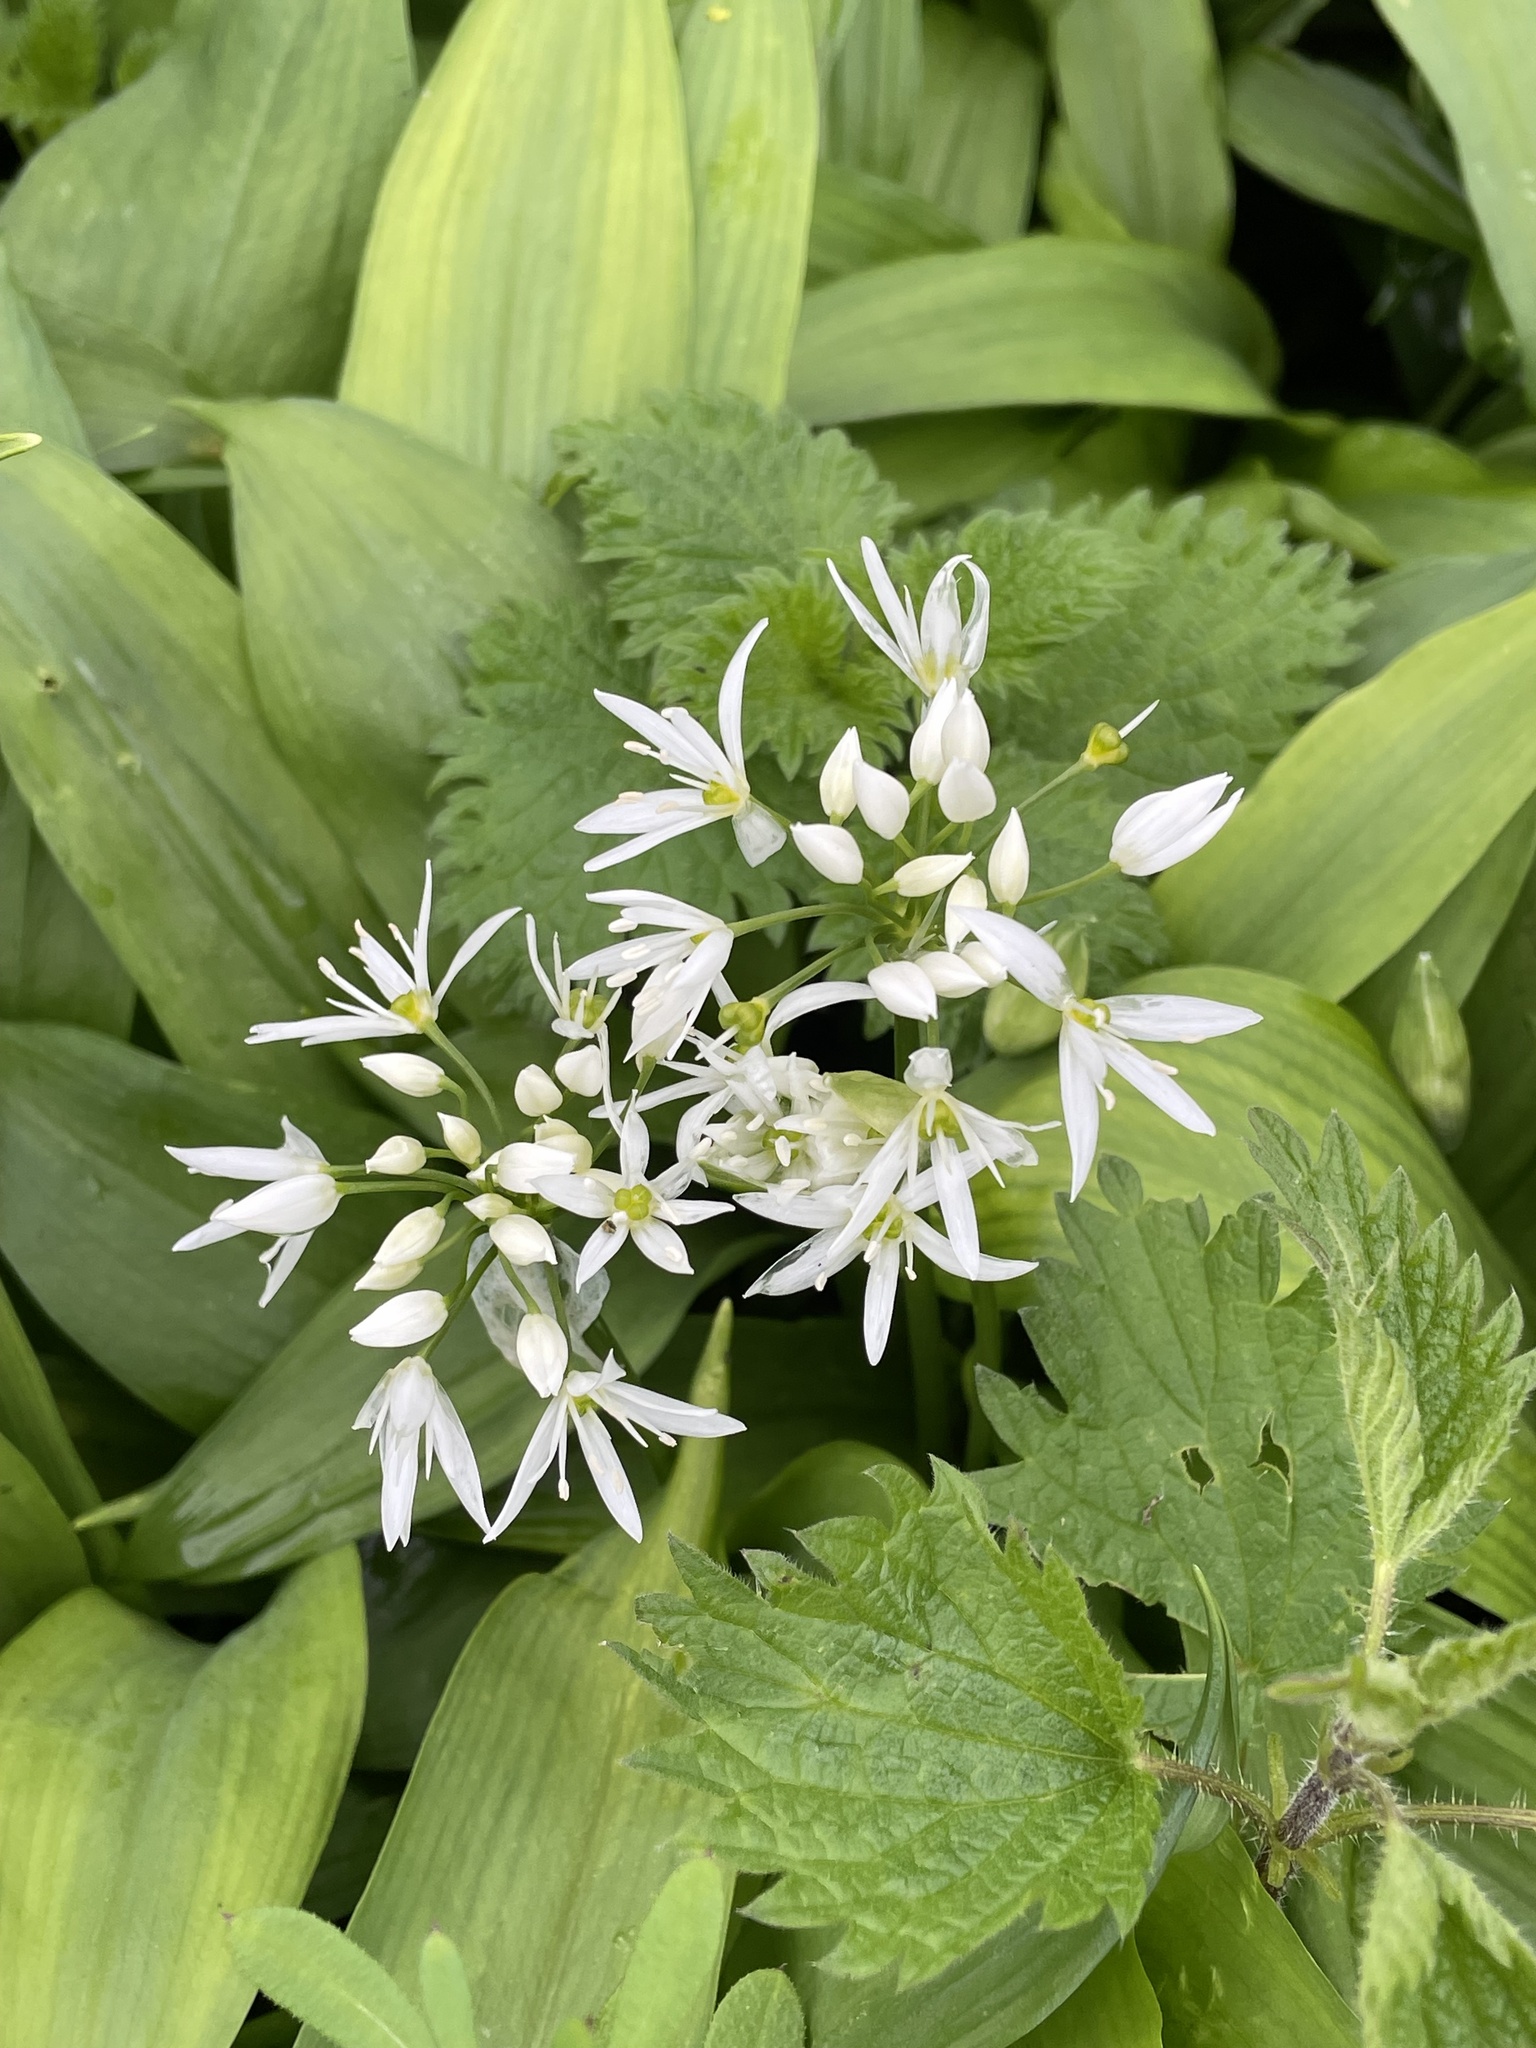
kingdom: Plantae
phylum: Tracheophyta
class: Liliopsida
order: Asparagales
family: Amaryllidaceae
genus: Allium
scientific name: Allium ursinum
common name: Ramsons
